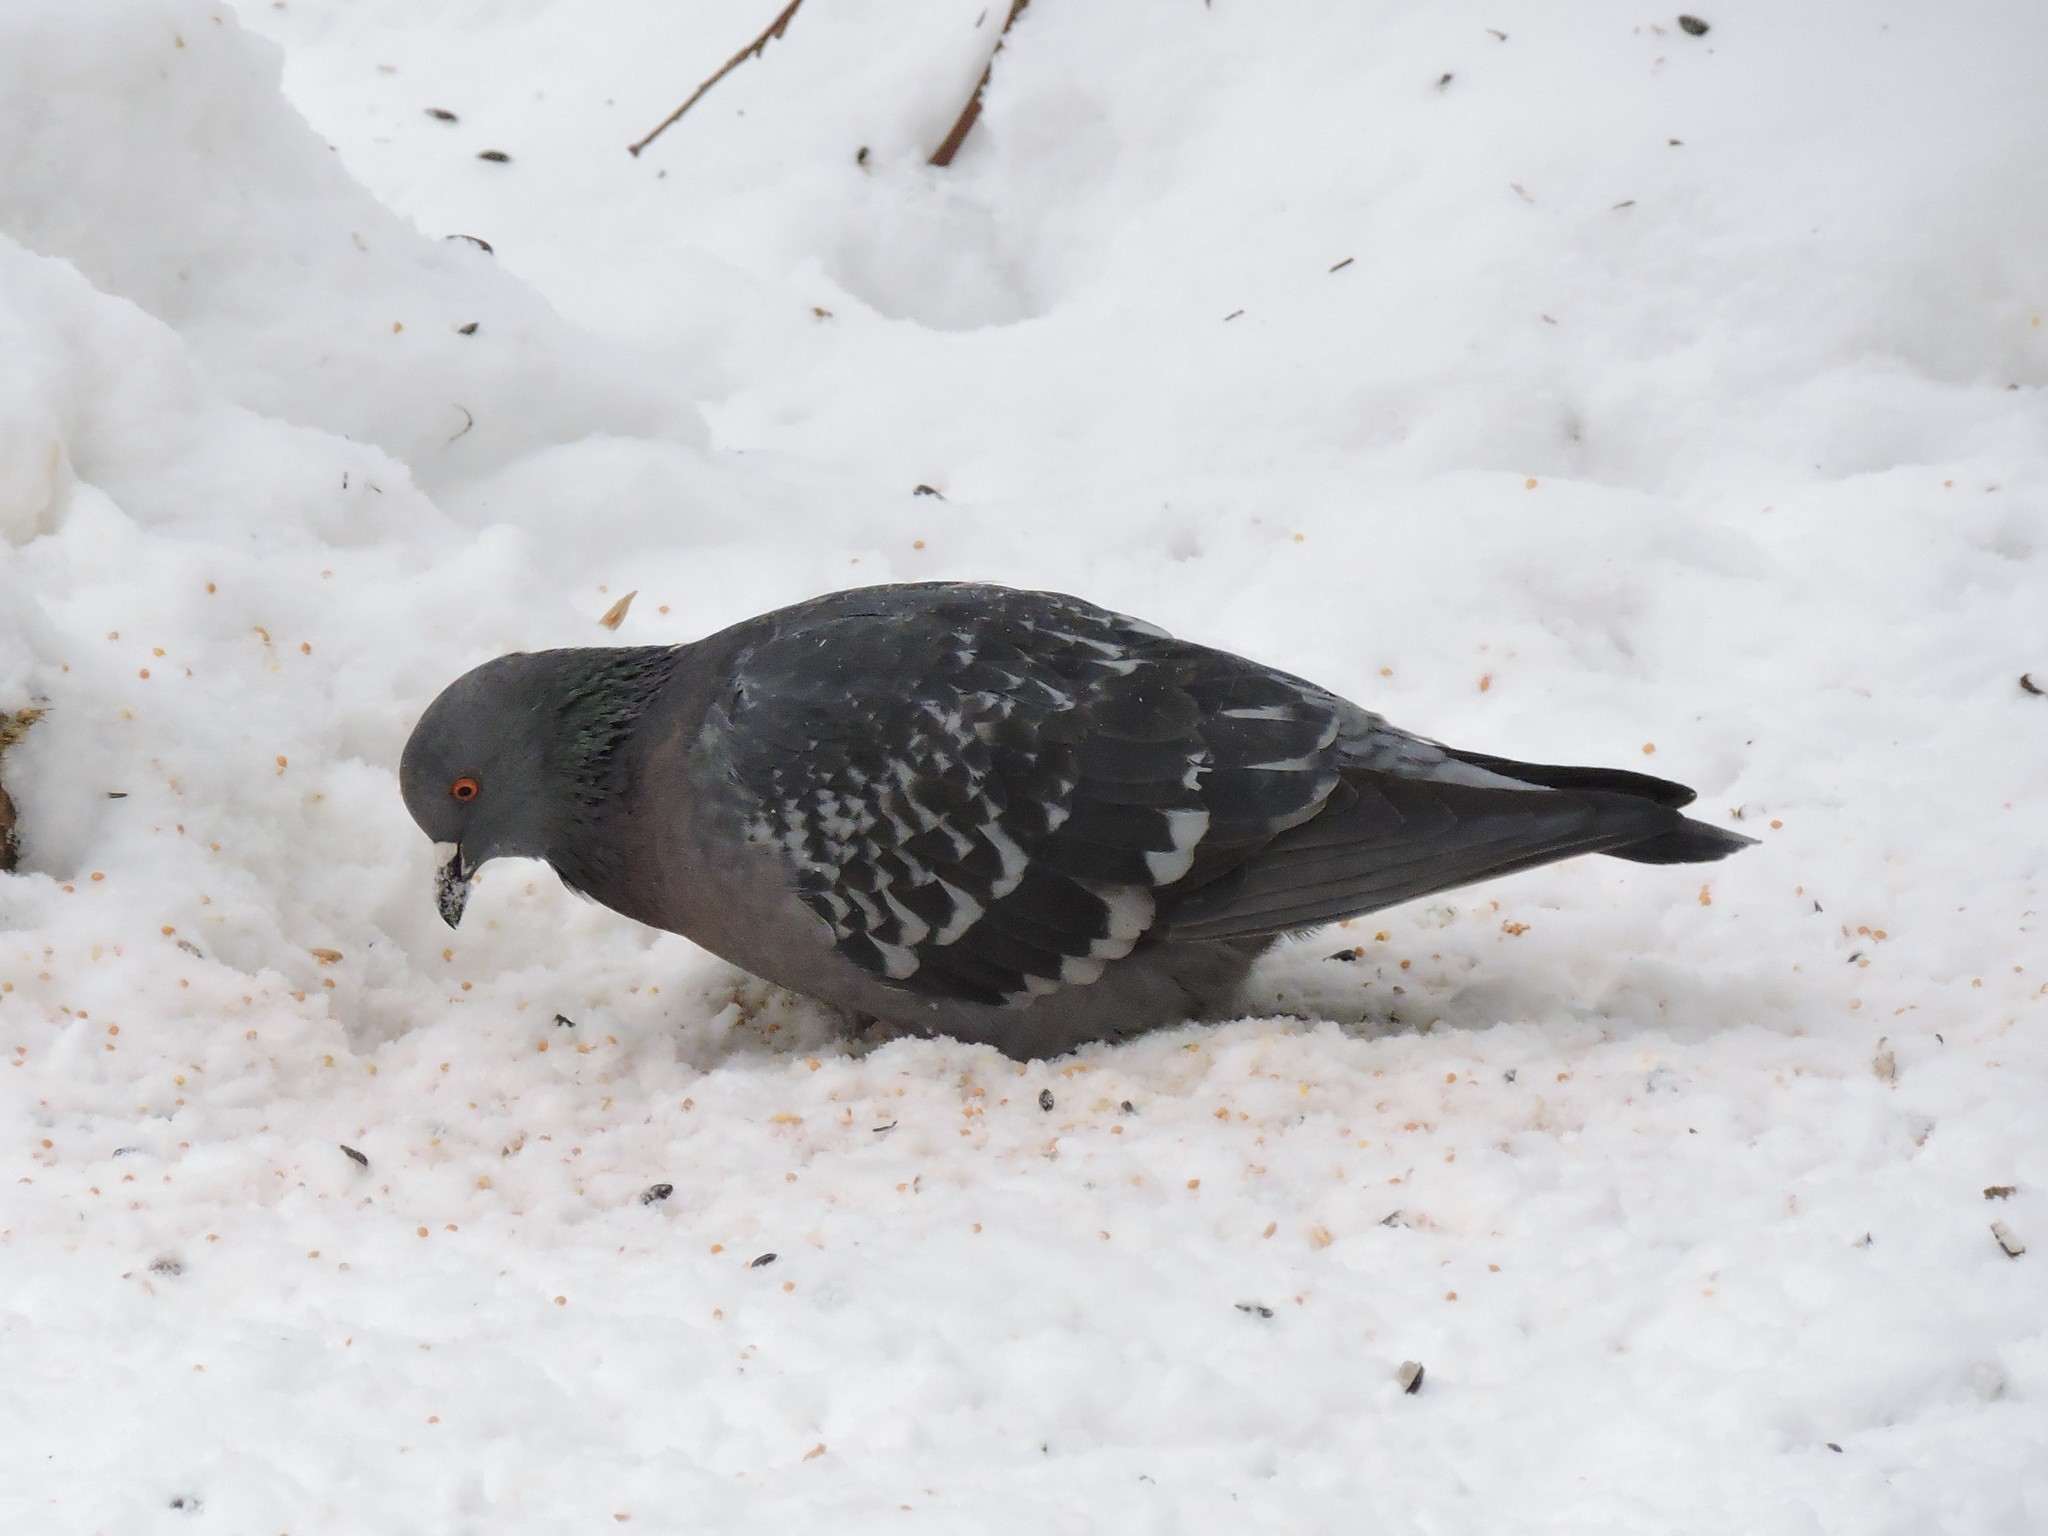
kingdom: Animalia
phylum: Chordata
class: Aves
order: Columbiformes
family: Columbidae
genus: Columba
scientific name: Columba livia
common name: Rock pigeon
